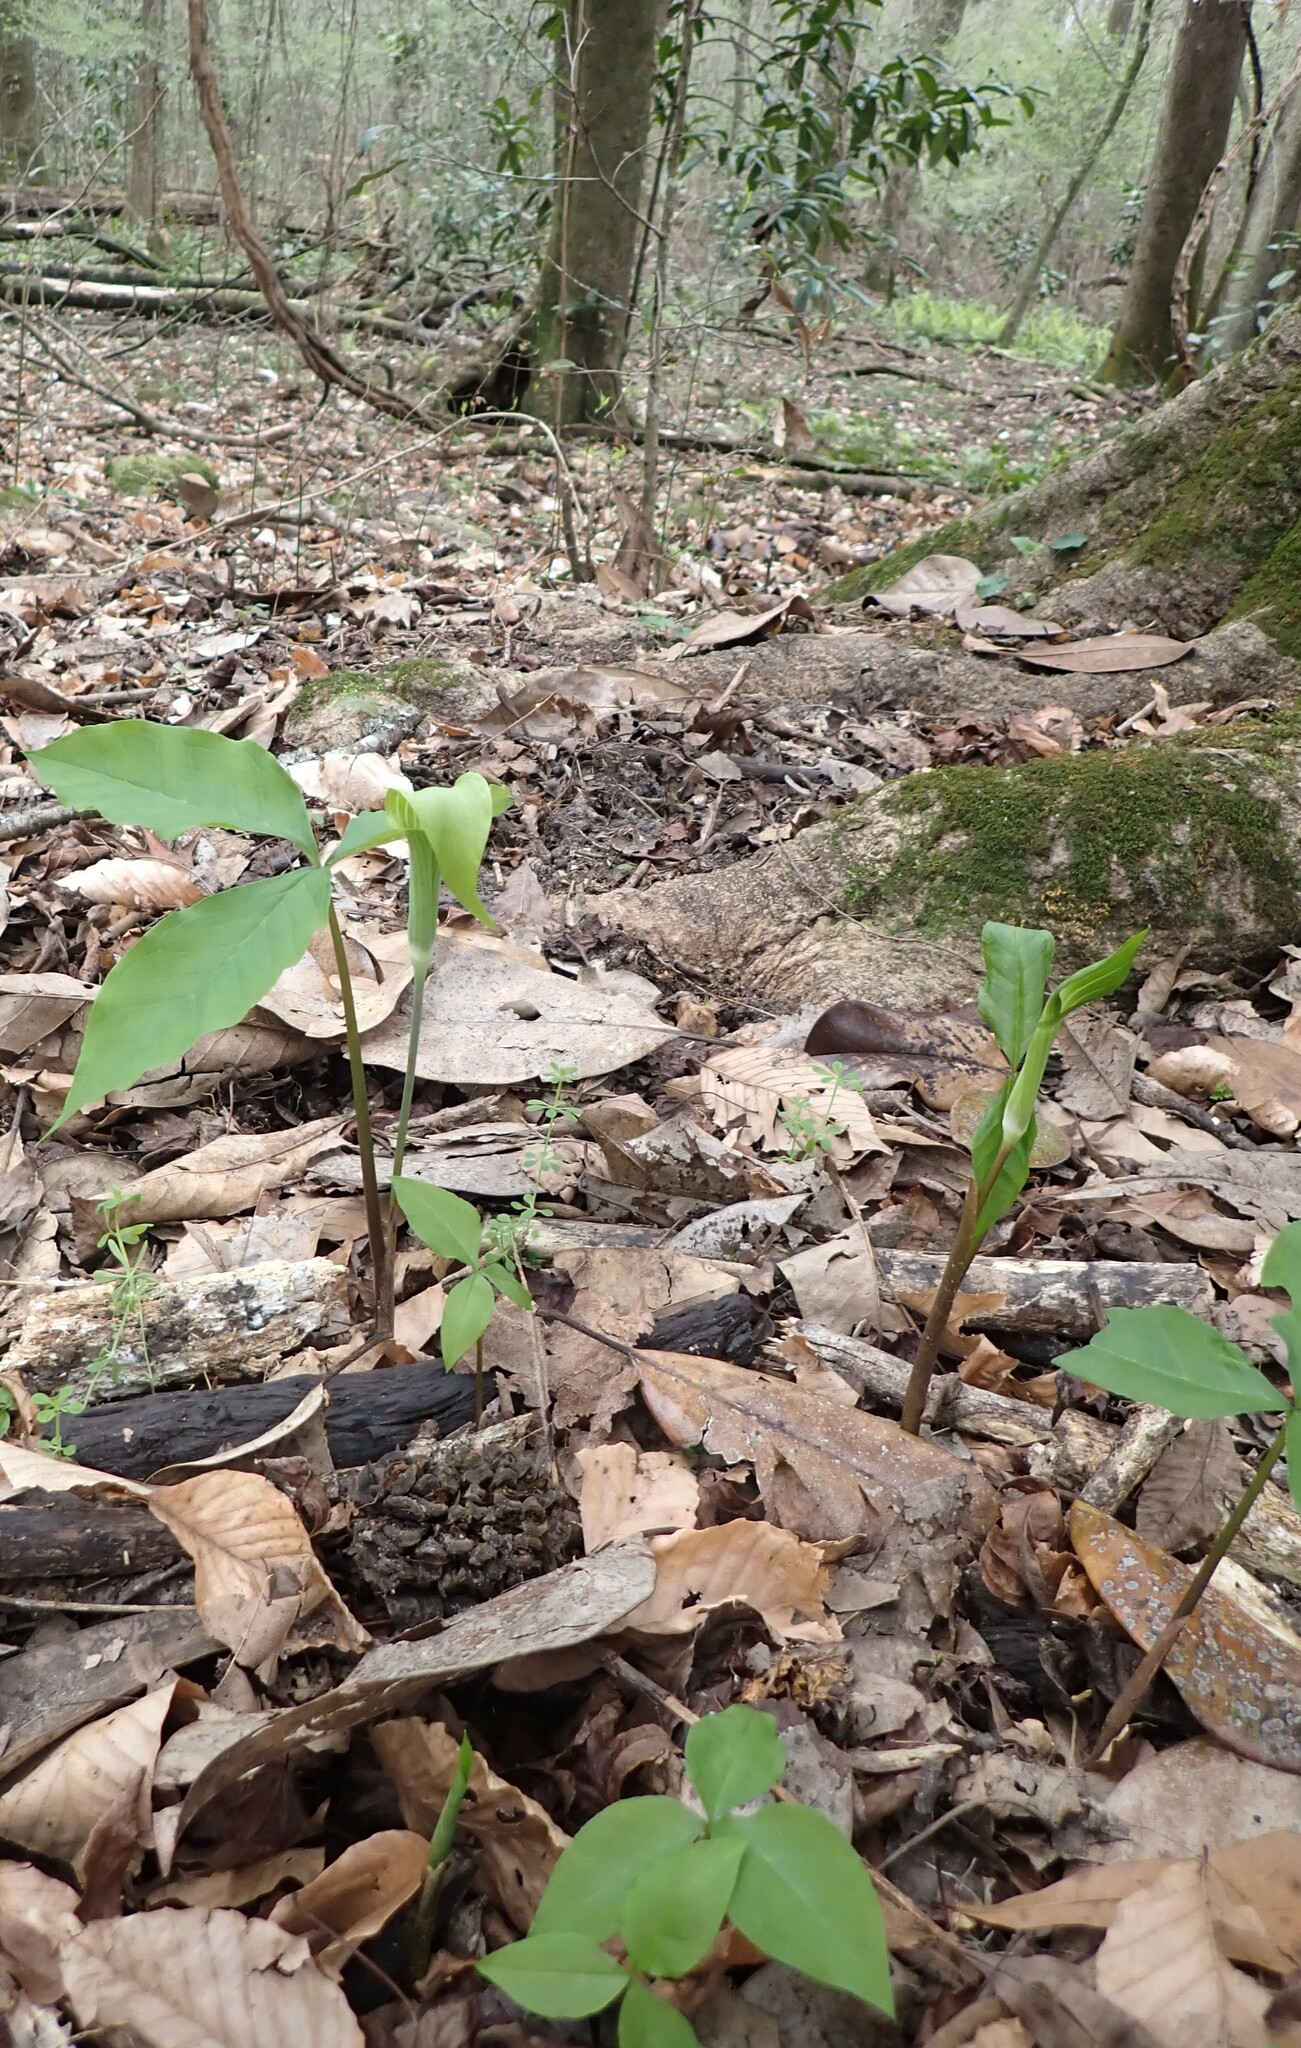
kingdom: Plantae
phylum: Tracheophyta
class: Liliopsida
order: Alismatales
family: Araceae
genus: Arisaema
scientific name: Arisaema acuminatum
